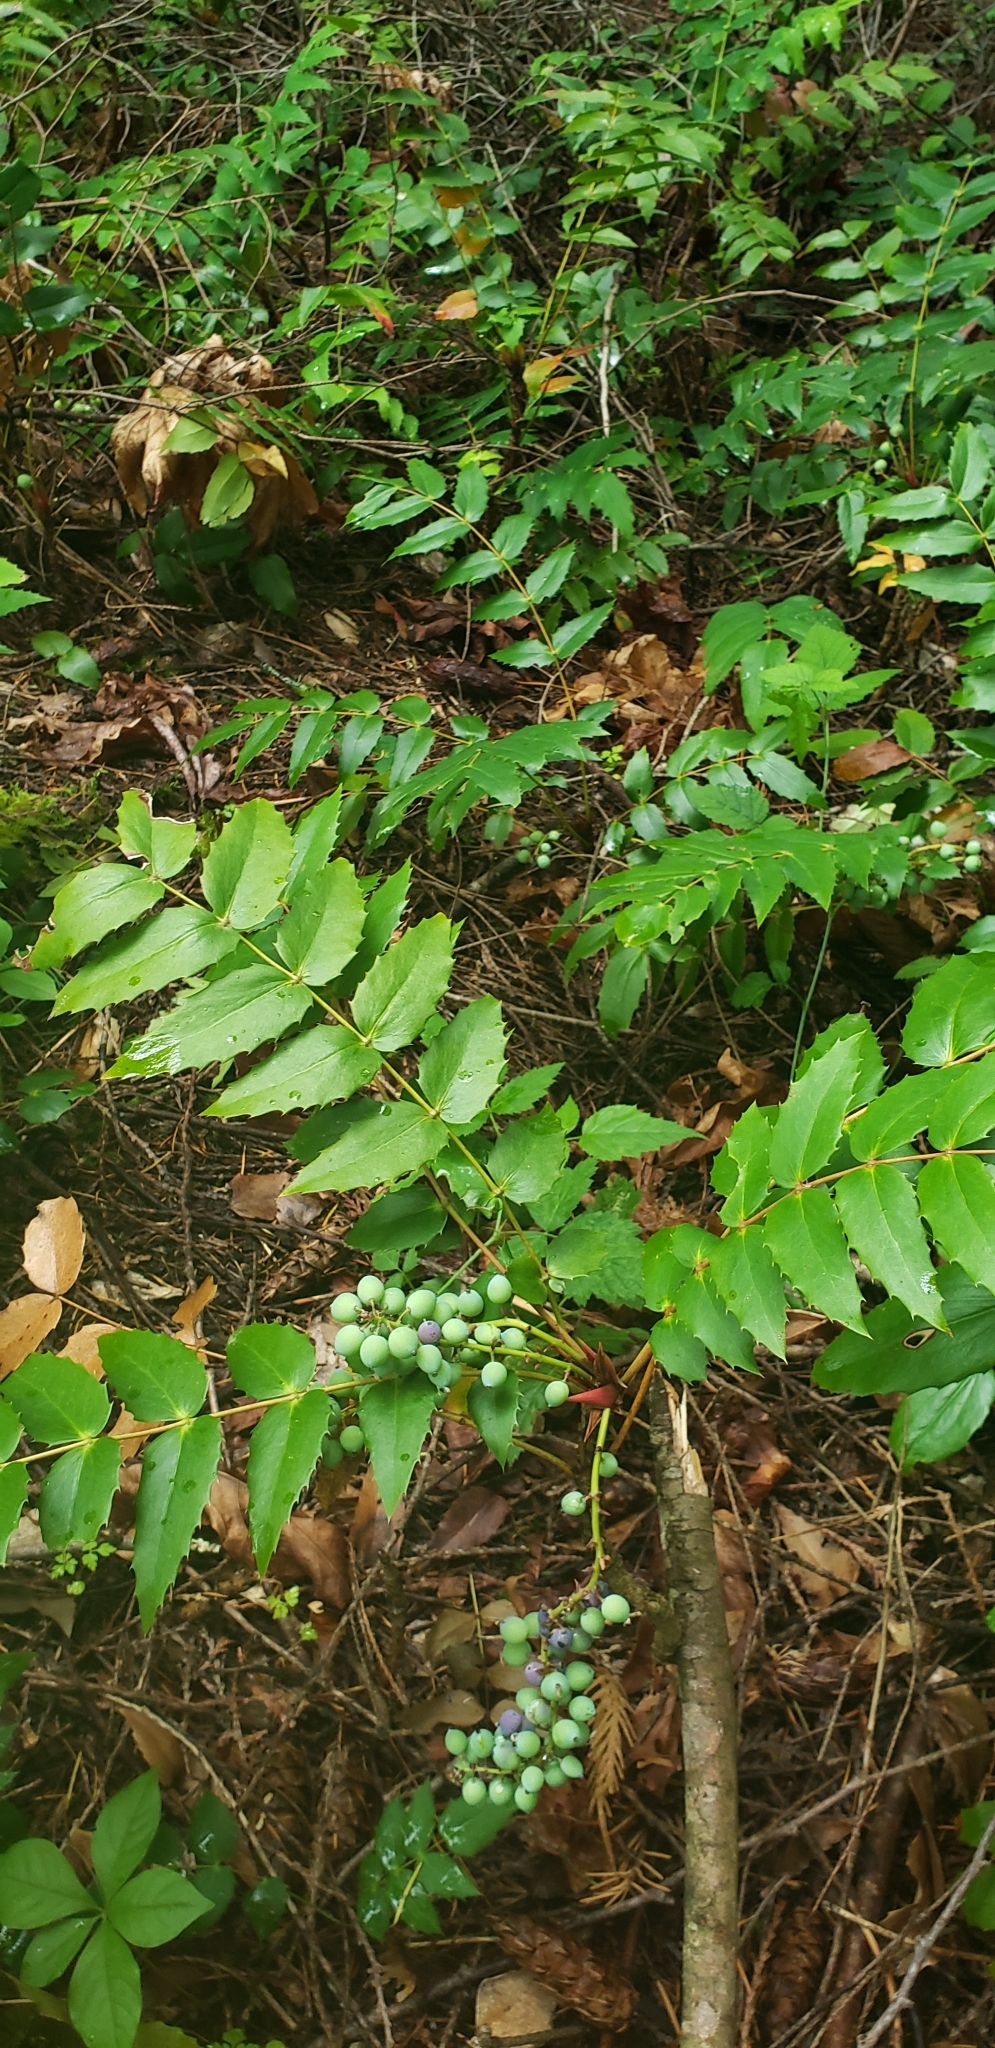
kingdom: Plantae
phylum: Tracheophyta
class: Magnoliopsida
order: Ranunculales
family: Berberidaceae
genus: Mahonia
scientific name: Mahonia nervosa
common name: Cascade oregon-grape
